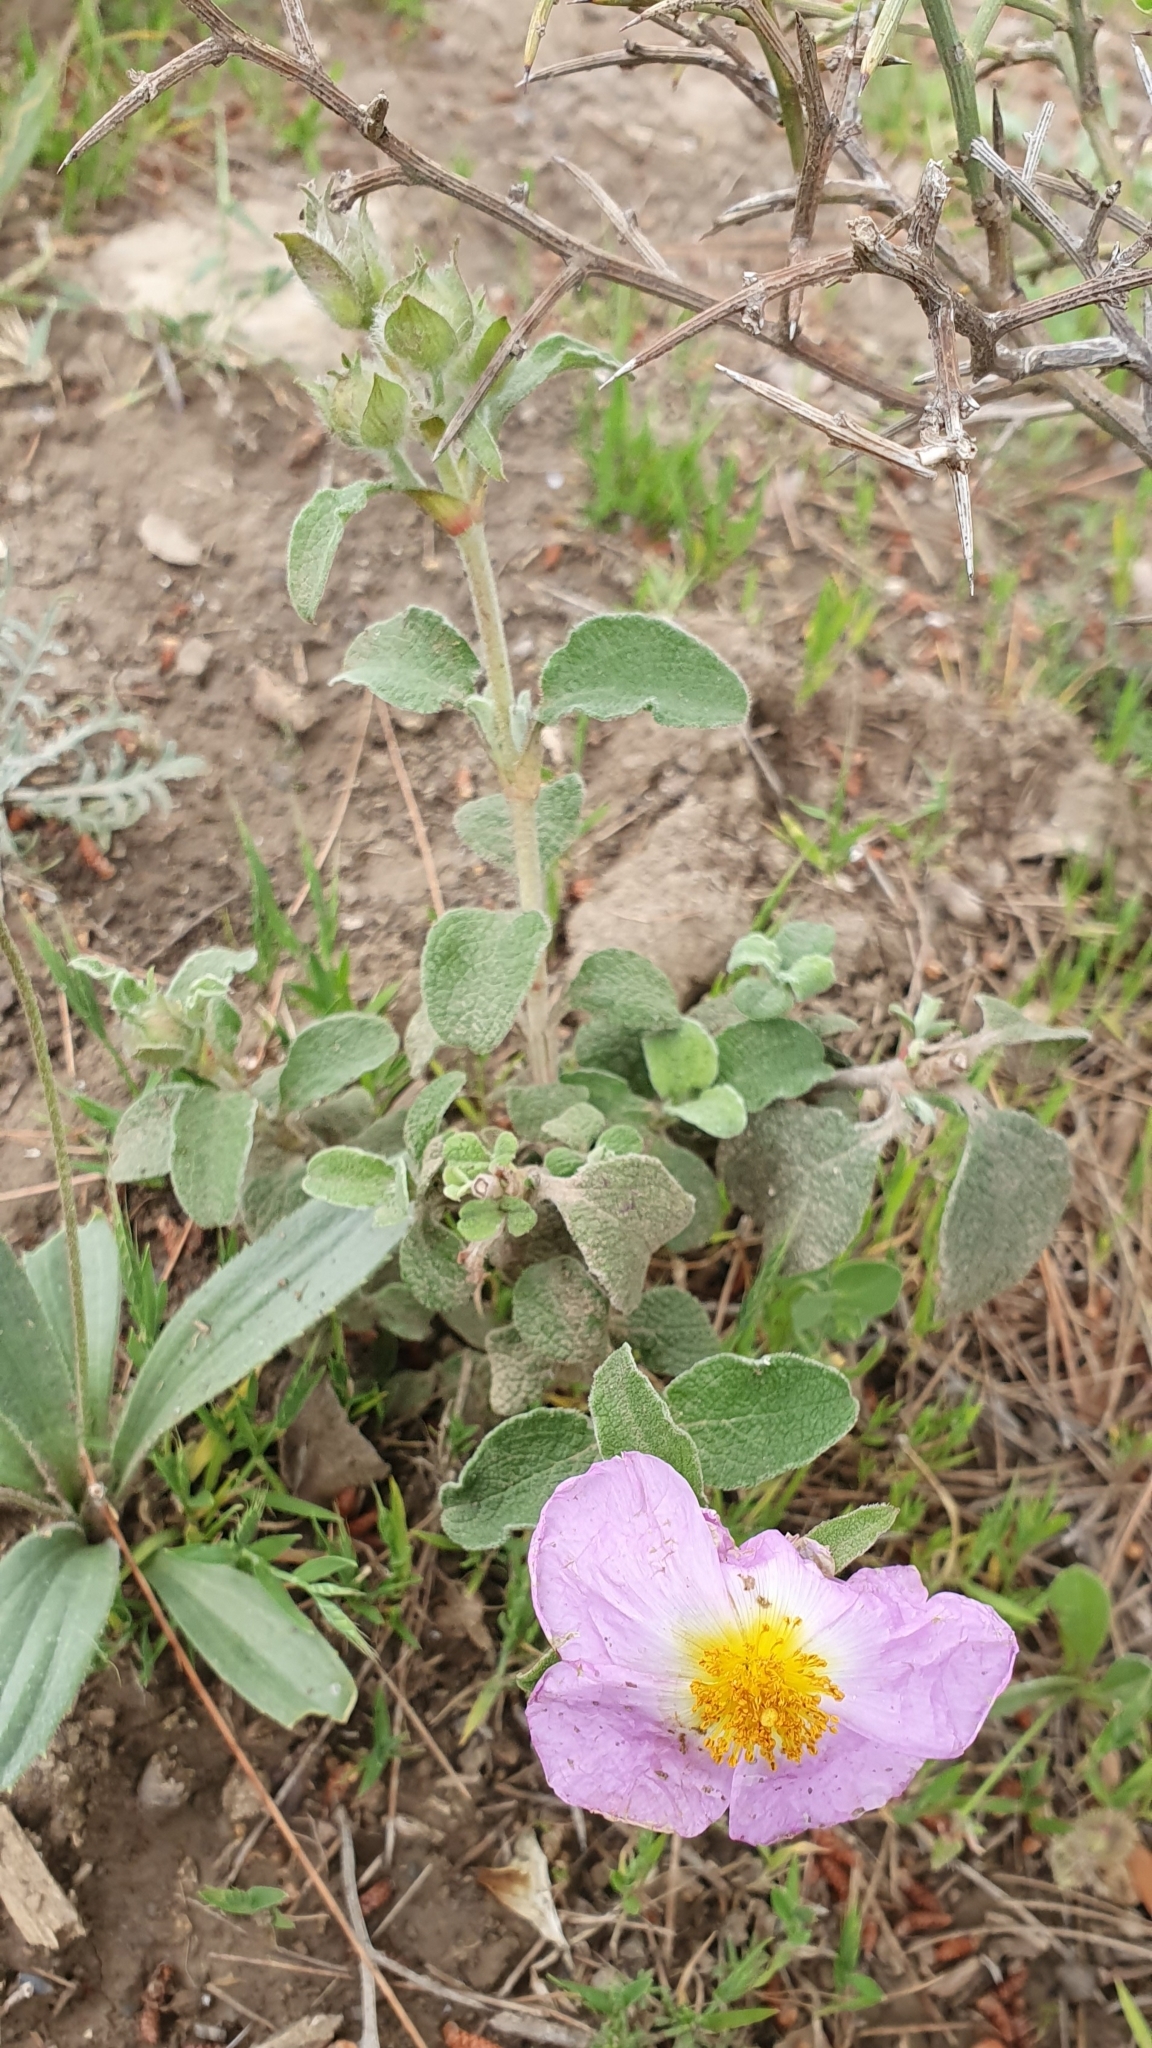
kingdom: Plantae
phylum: Tracheophyta
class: Magnoliopsida
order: Malvales
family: Cistaceae
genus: Cistus
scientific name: Cistus creticus
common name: Cretan rockrose
